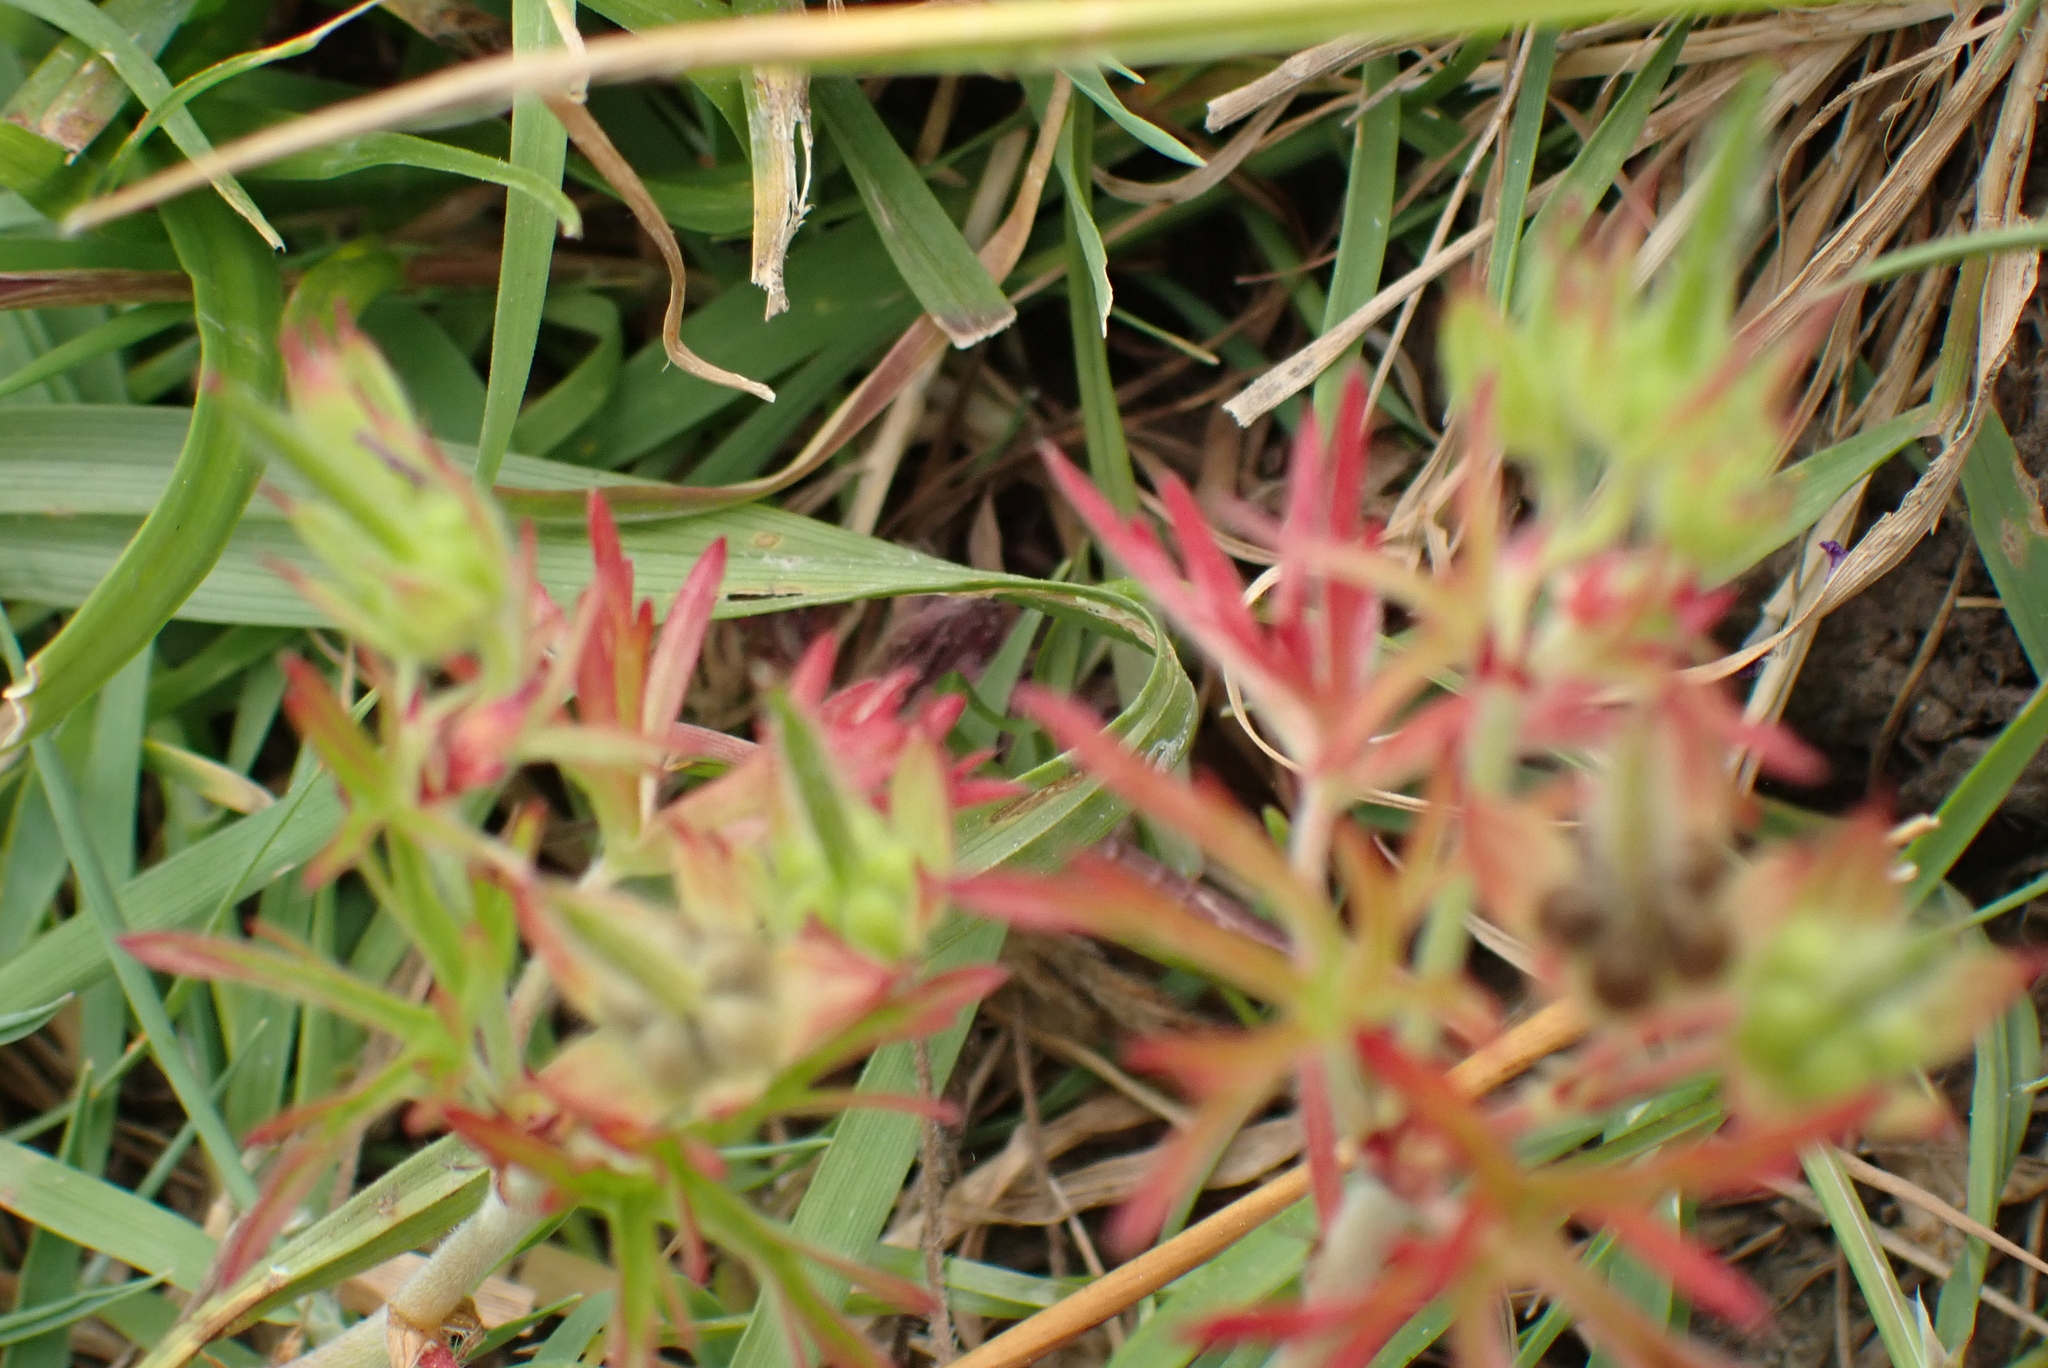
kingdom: Plantae
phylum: Tracheophyta
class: Magnoliopsida
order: Geraniales
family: Geraniaceae
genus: Geranium
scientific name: Geranium dissectum
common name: Cut-leaved crane's-bill
